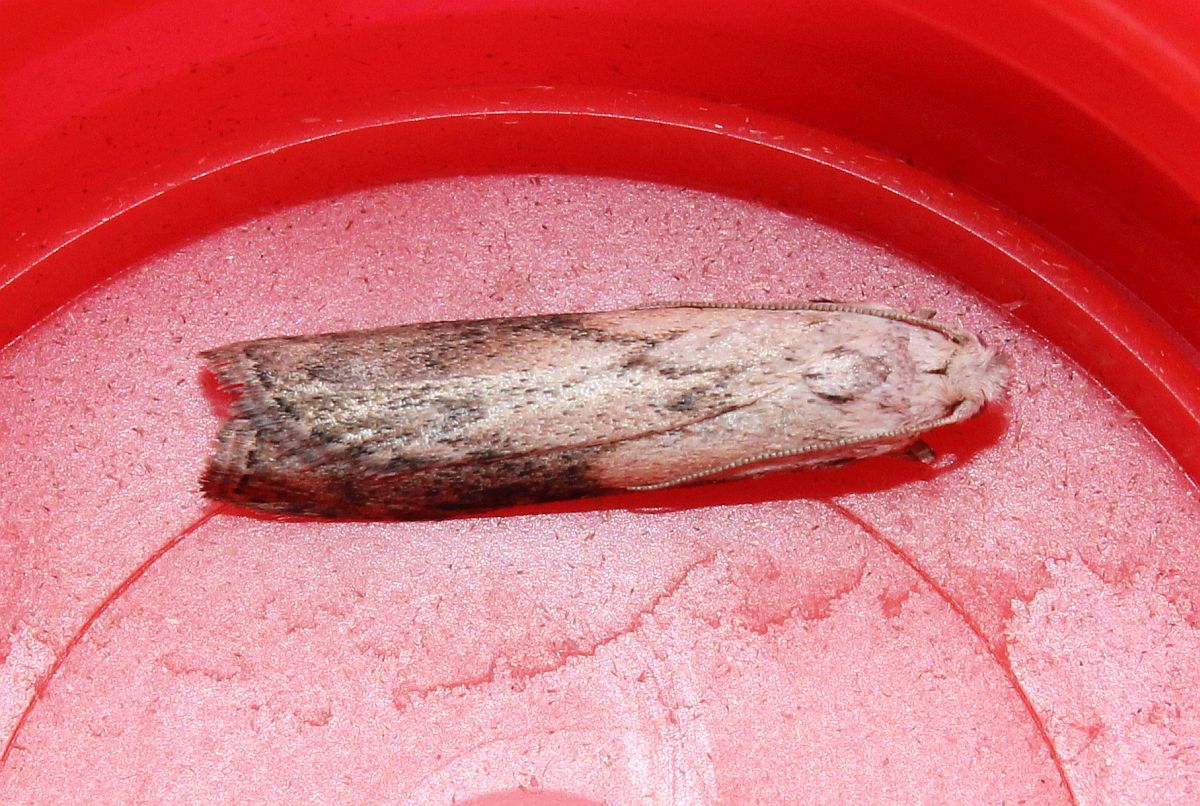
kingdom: Animalia
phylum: Arthropoda
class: Insecta
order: Lepidoptera
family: Pyralidae
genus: Aphomia
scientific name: Aphomia sociella
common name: Bee moth
